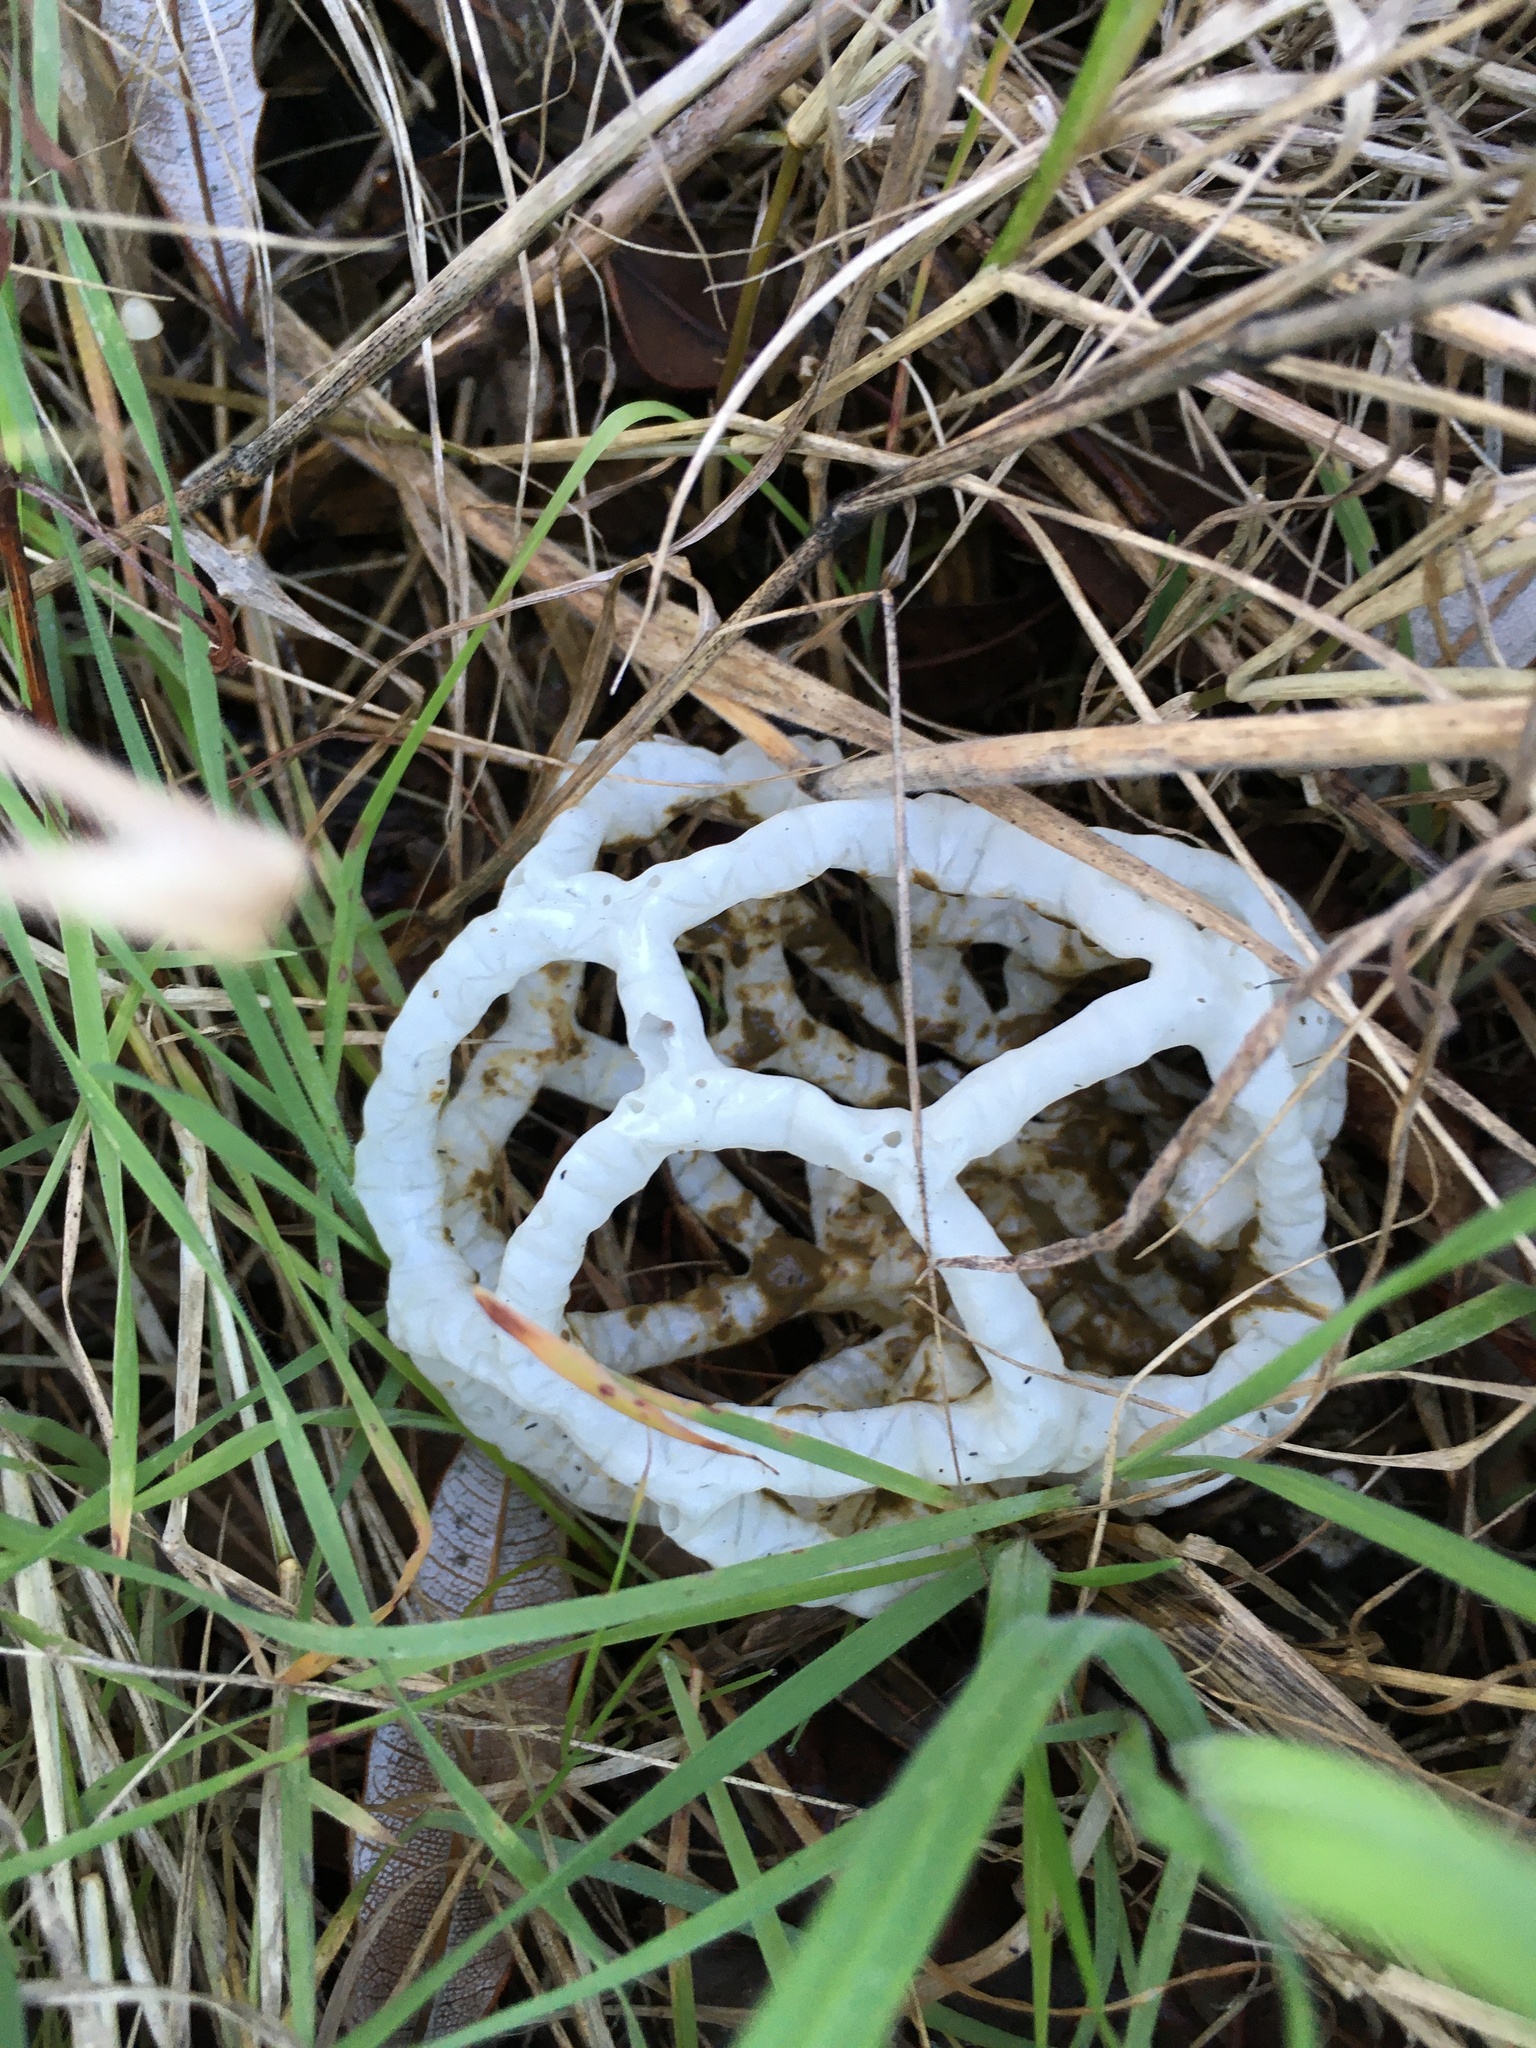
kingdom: Fungi
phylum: Basidiomycota
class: Agaricomycetes
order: Phallales
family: Phallaceae
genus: Ileodictyon
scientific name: Ileodictyon cibarium
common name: Basket fungus
